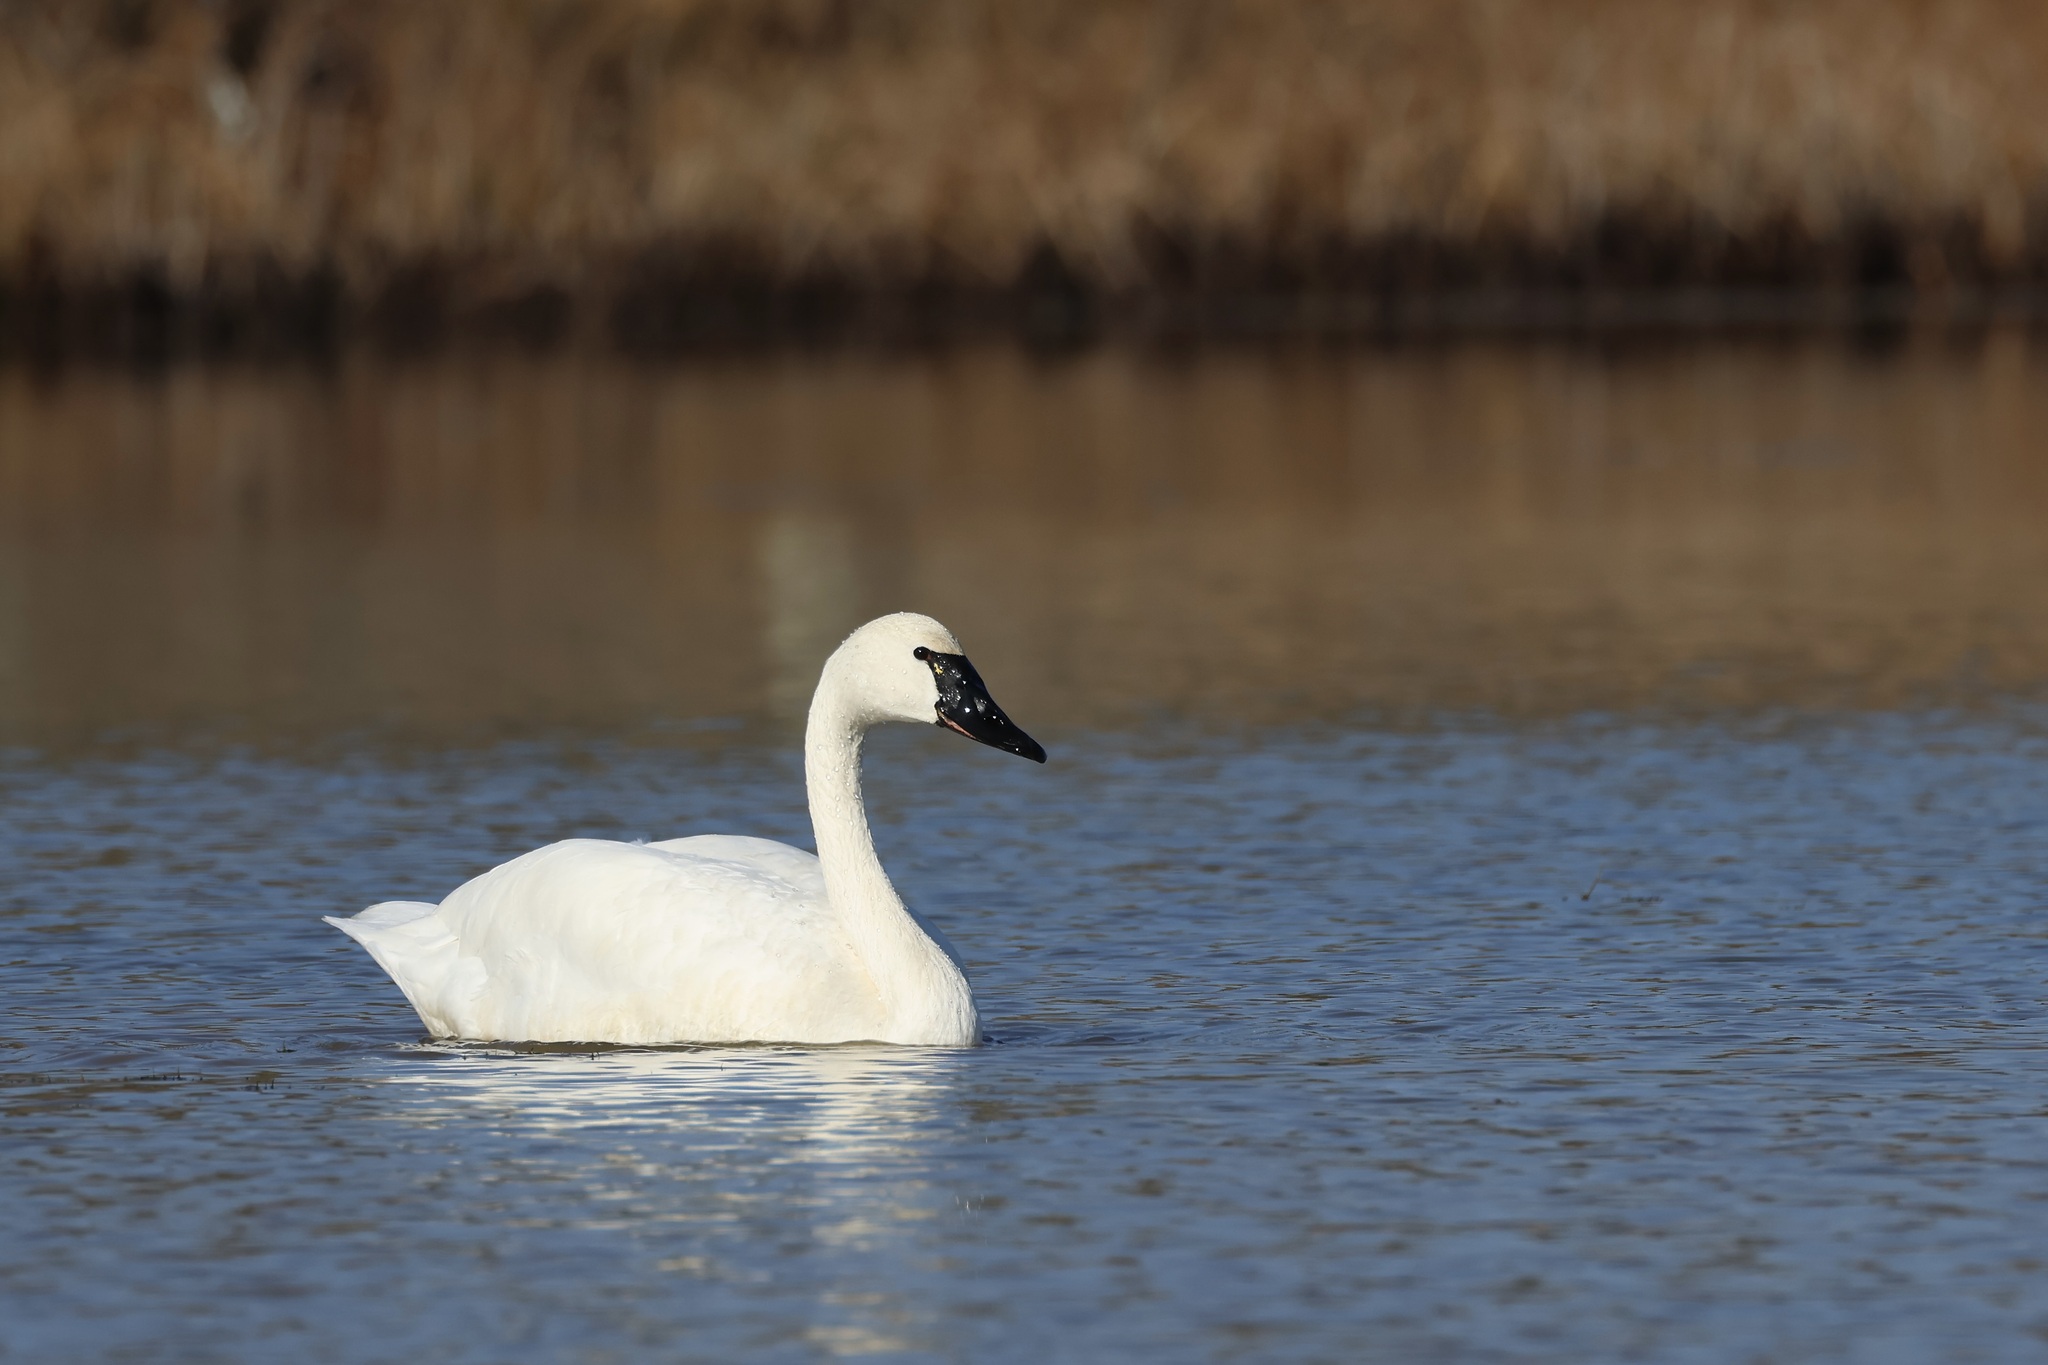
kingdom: Animalia
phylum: Chordata
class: Aves
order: Anseriformes
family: Anatidae
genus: Cygnus
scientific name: Cygnus columbianus
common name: Tundra swan
